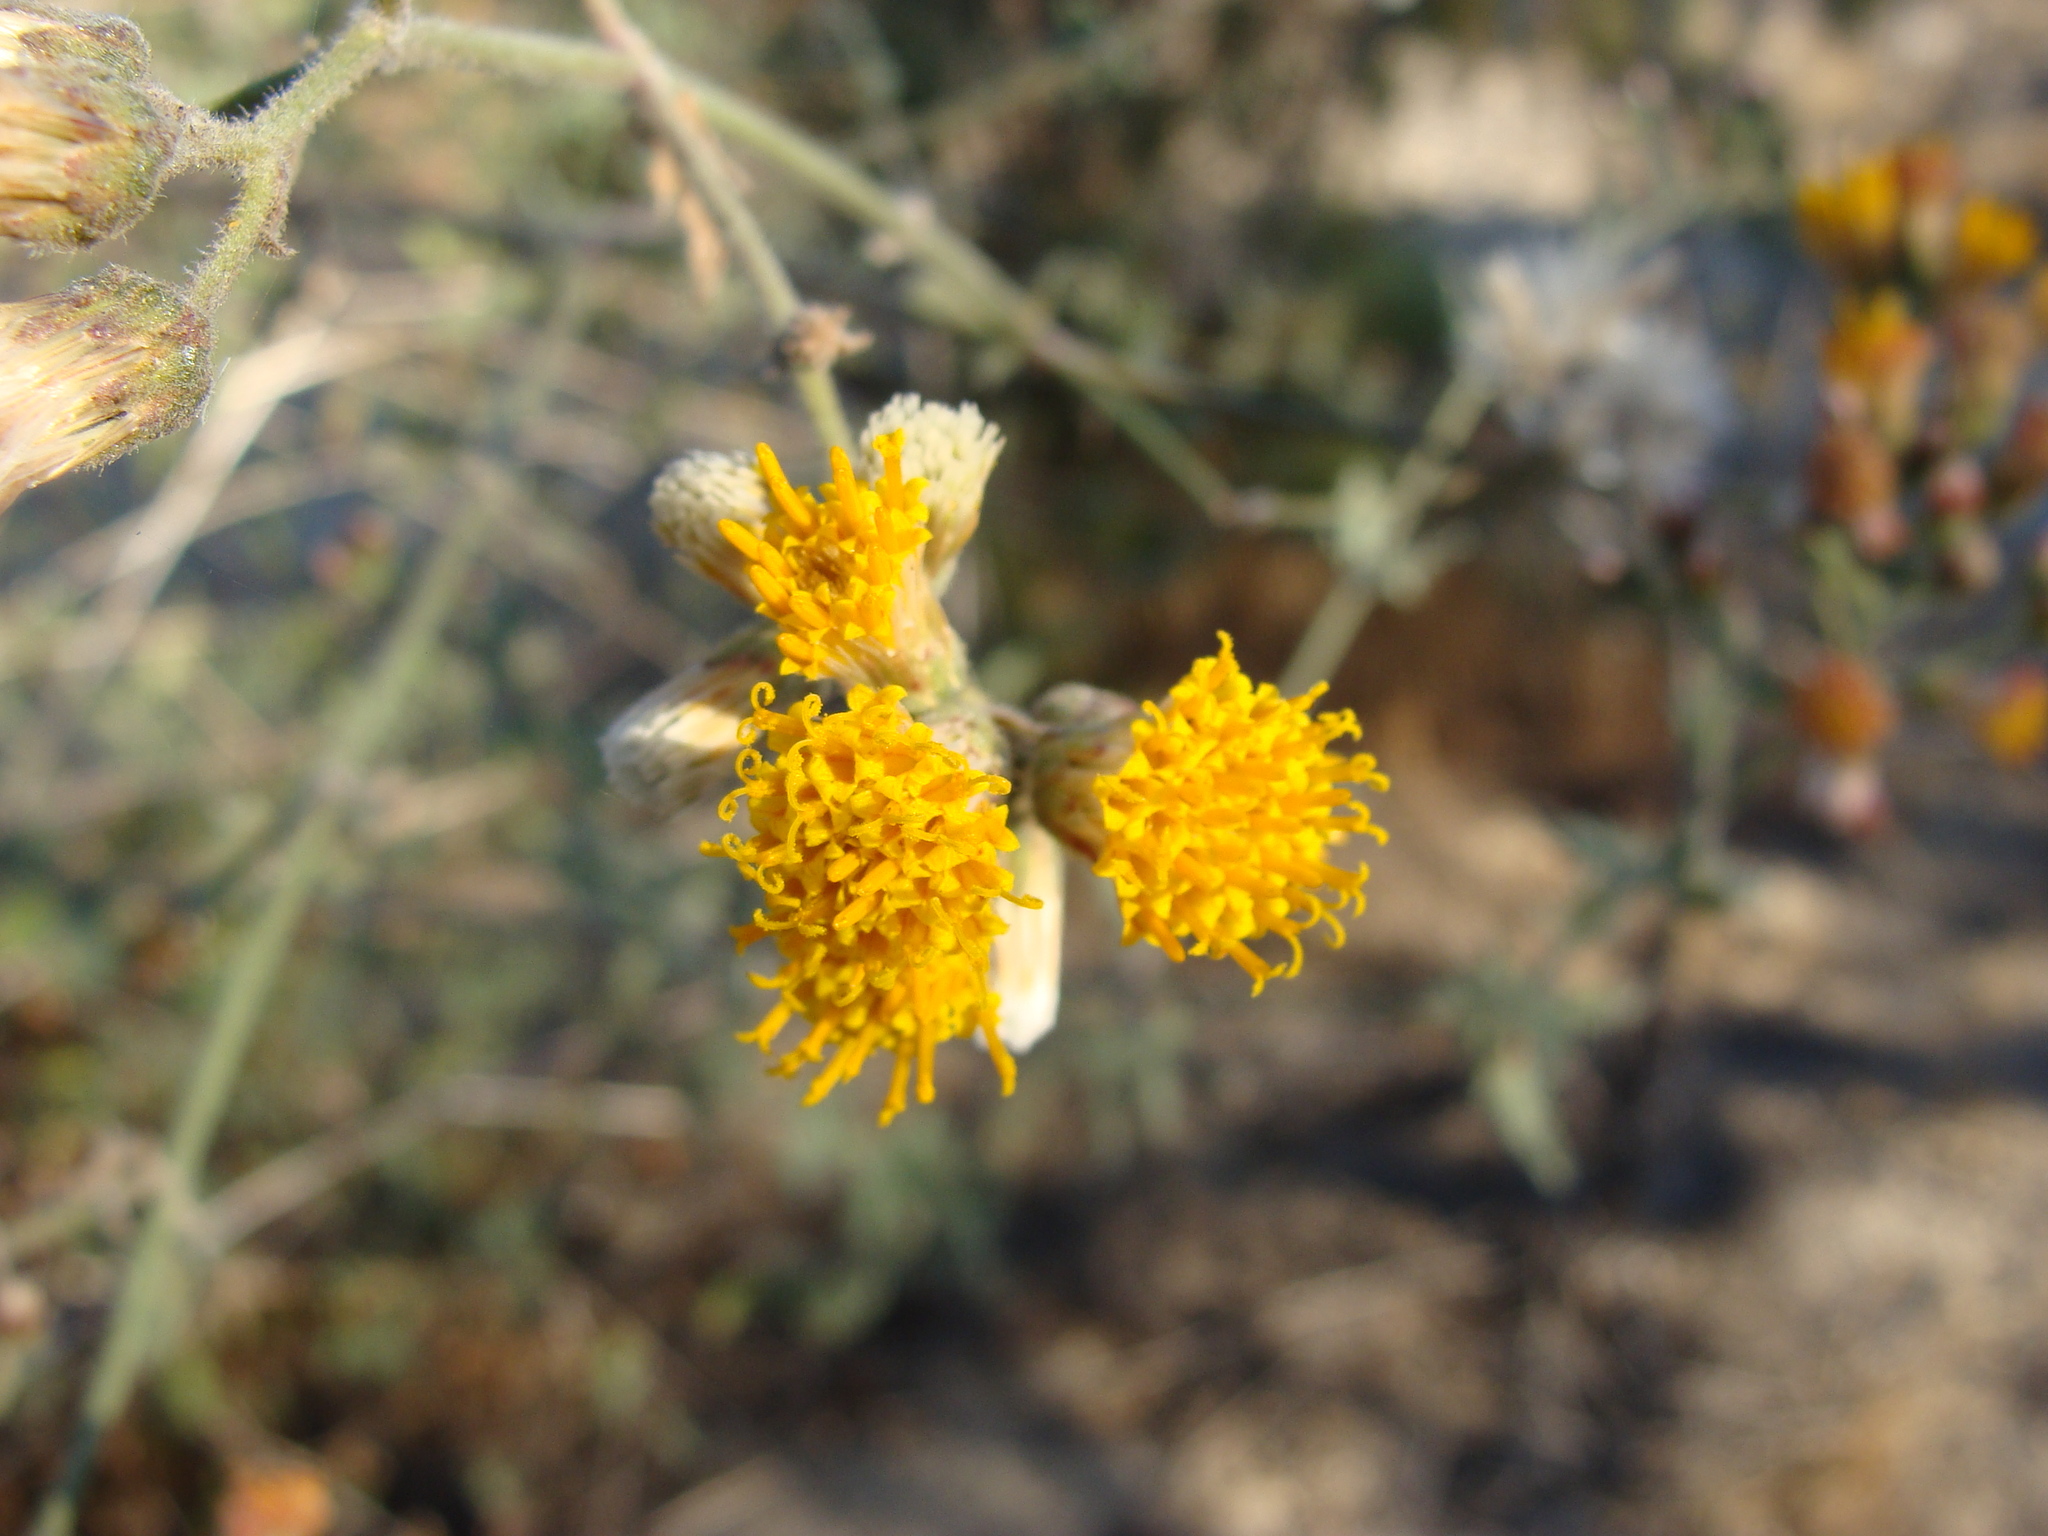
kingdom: Plantae
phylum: Tracheophyta
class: Magnoliopsida
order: Asterales
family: Asteraceae
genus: Bebbia
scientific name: Bebbia atriplicifolia
